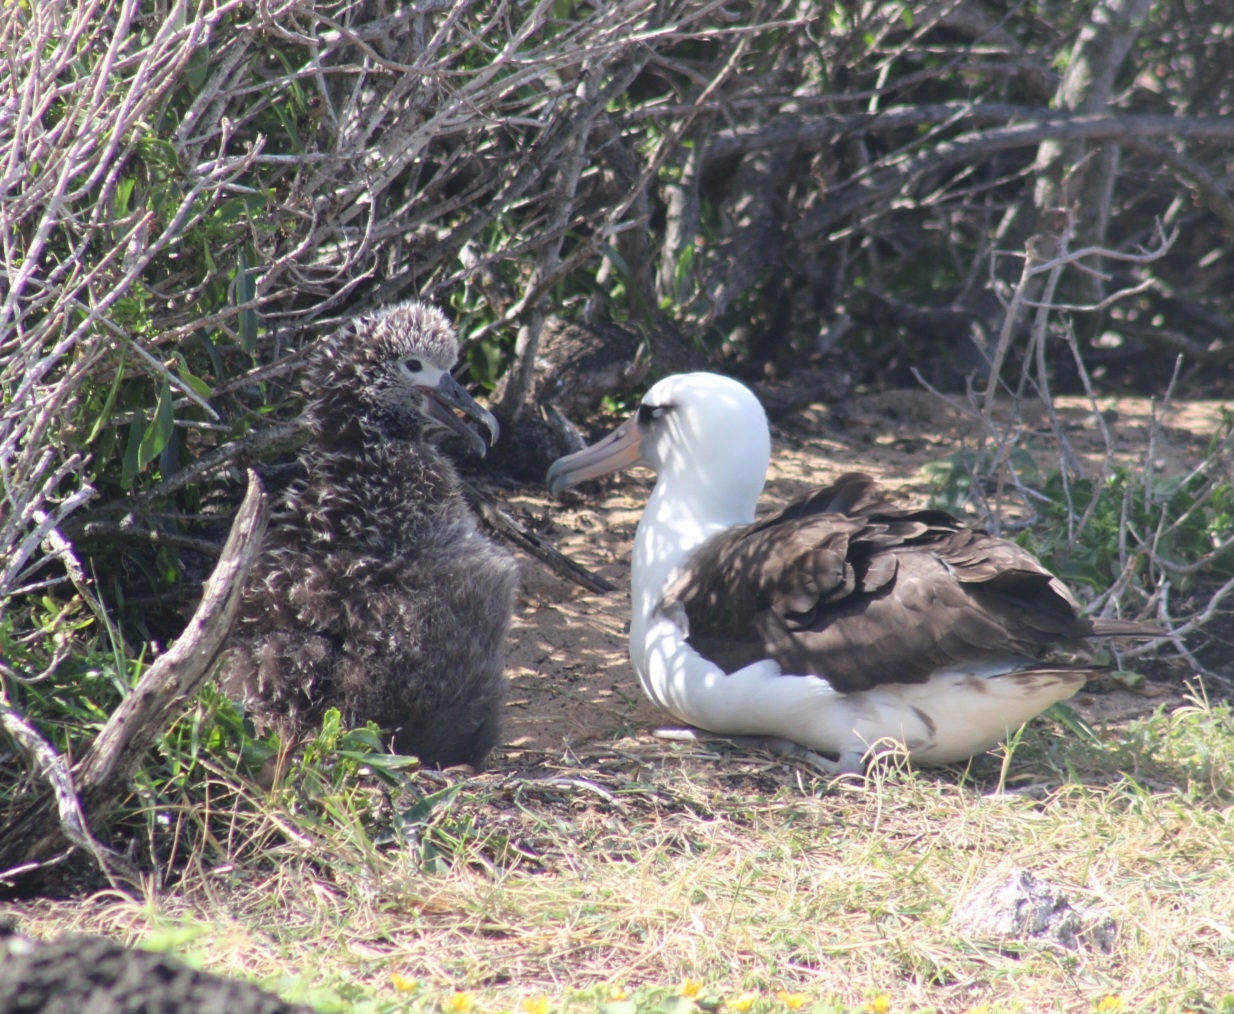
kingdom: Animalia
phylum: Chordata
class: Aves
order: Procellariiformes
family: Diomedeidae
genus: Phoebastria
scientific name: Phoebastria immutabilis
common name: Laysan albatross
